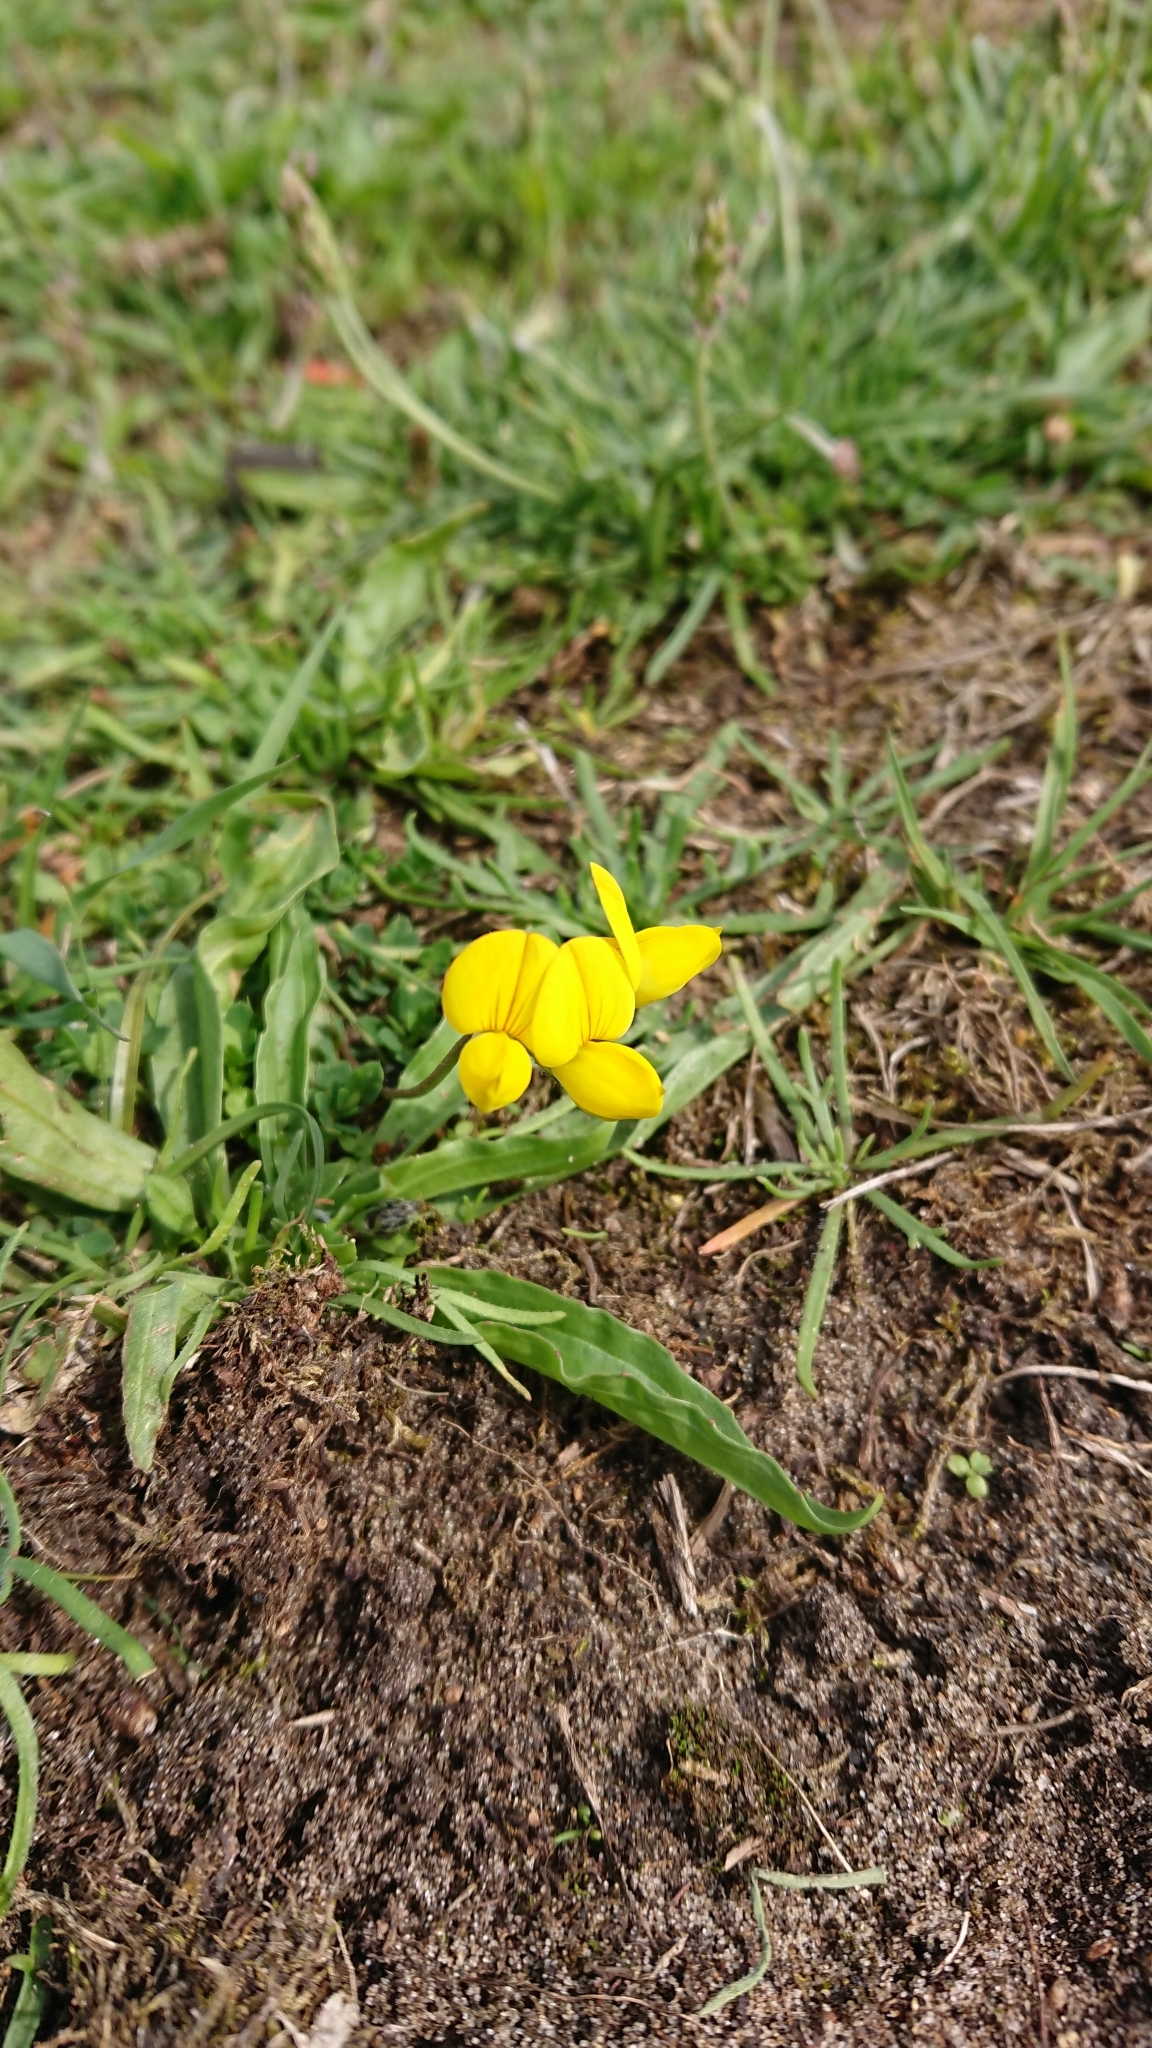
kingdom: Plantae
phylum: Tracheophyta
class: Magnoliopsida
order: Fabales
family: Fabaceae
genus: Lotus
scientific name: Lotus corniculatus
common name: Common bird's-foot-trefoil
